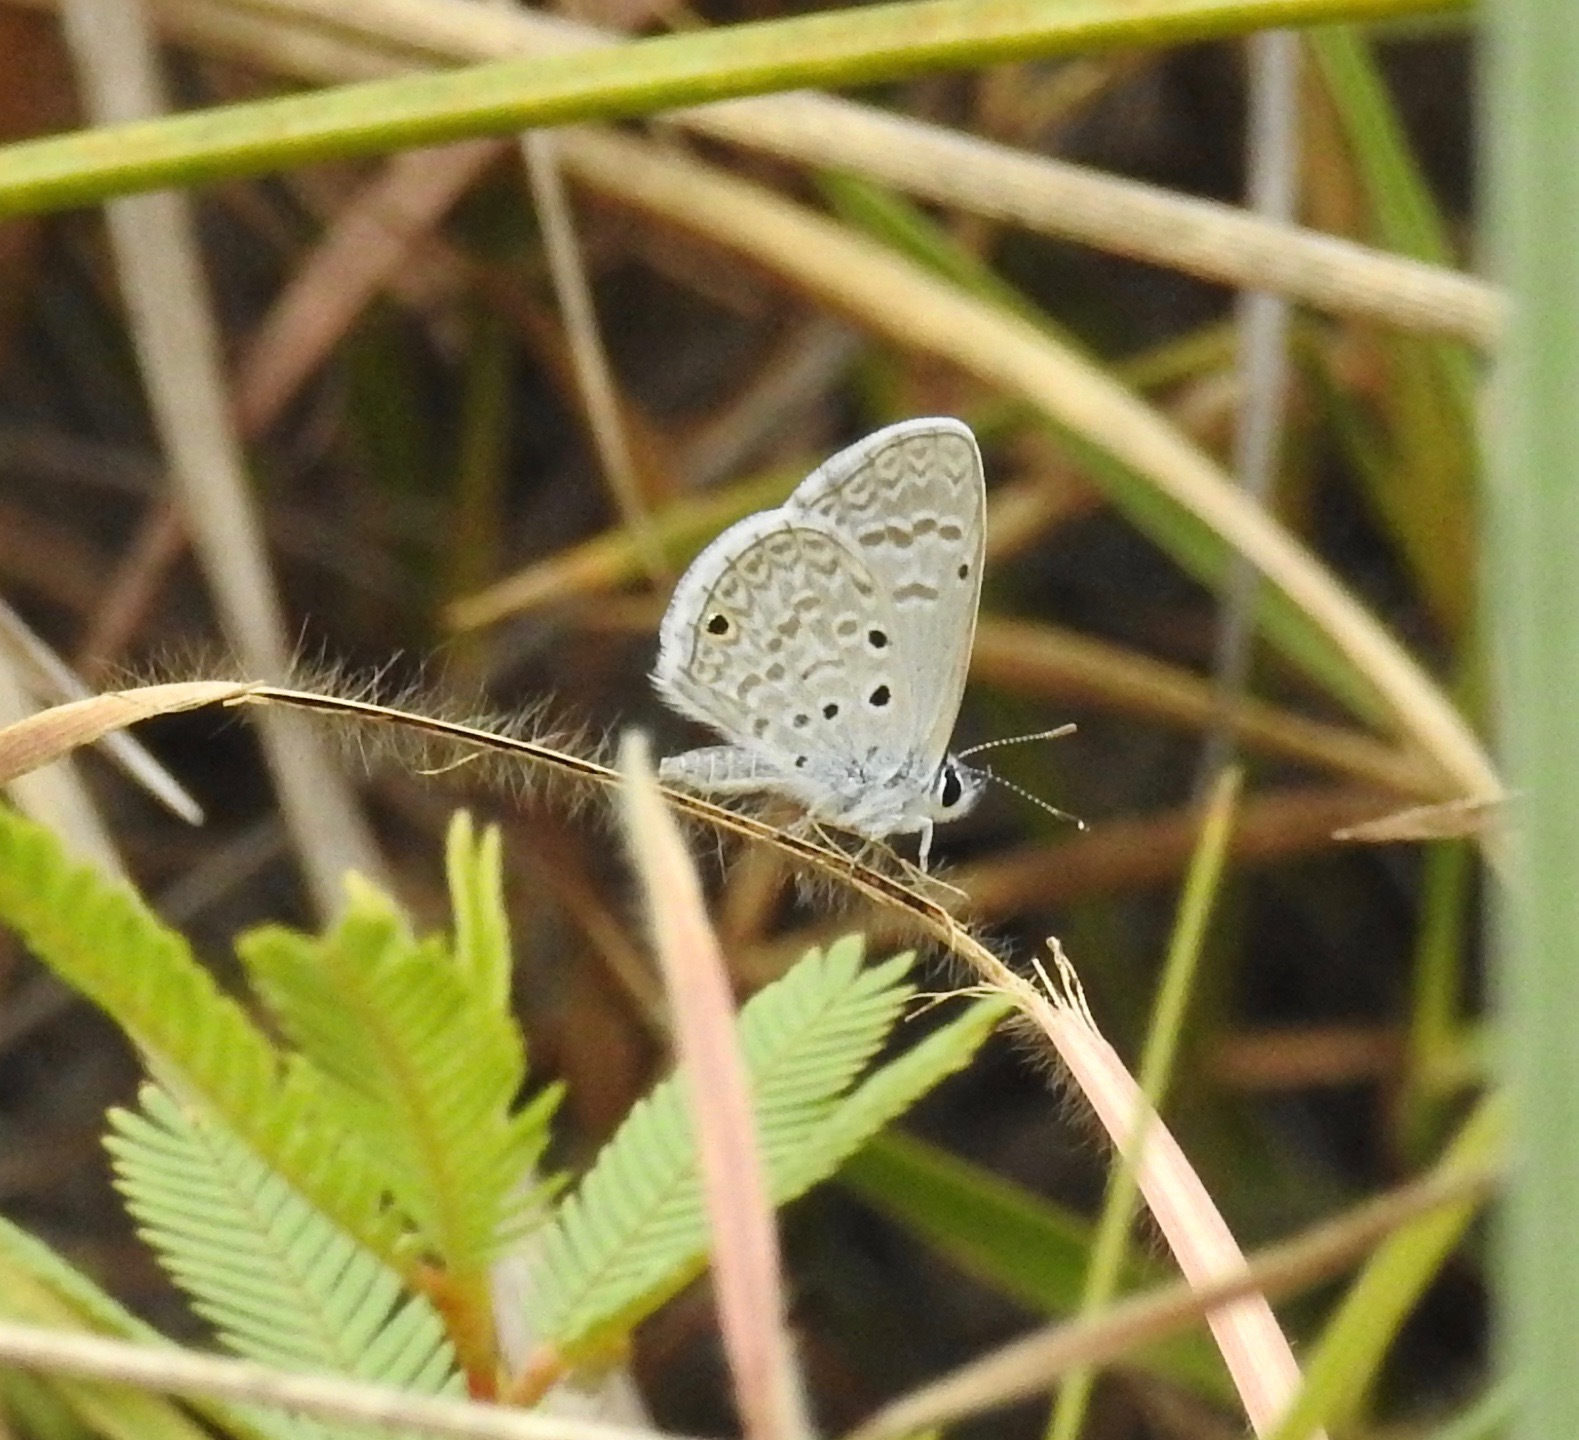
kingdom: Animalia
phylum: Arthropoda
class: Insecta
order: Lepidoptera
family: Lycaenidae
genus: Hemiargus
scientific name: Hemiargus hanno
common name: Common blue
